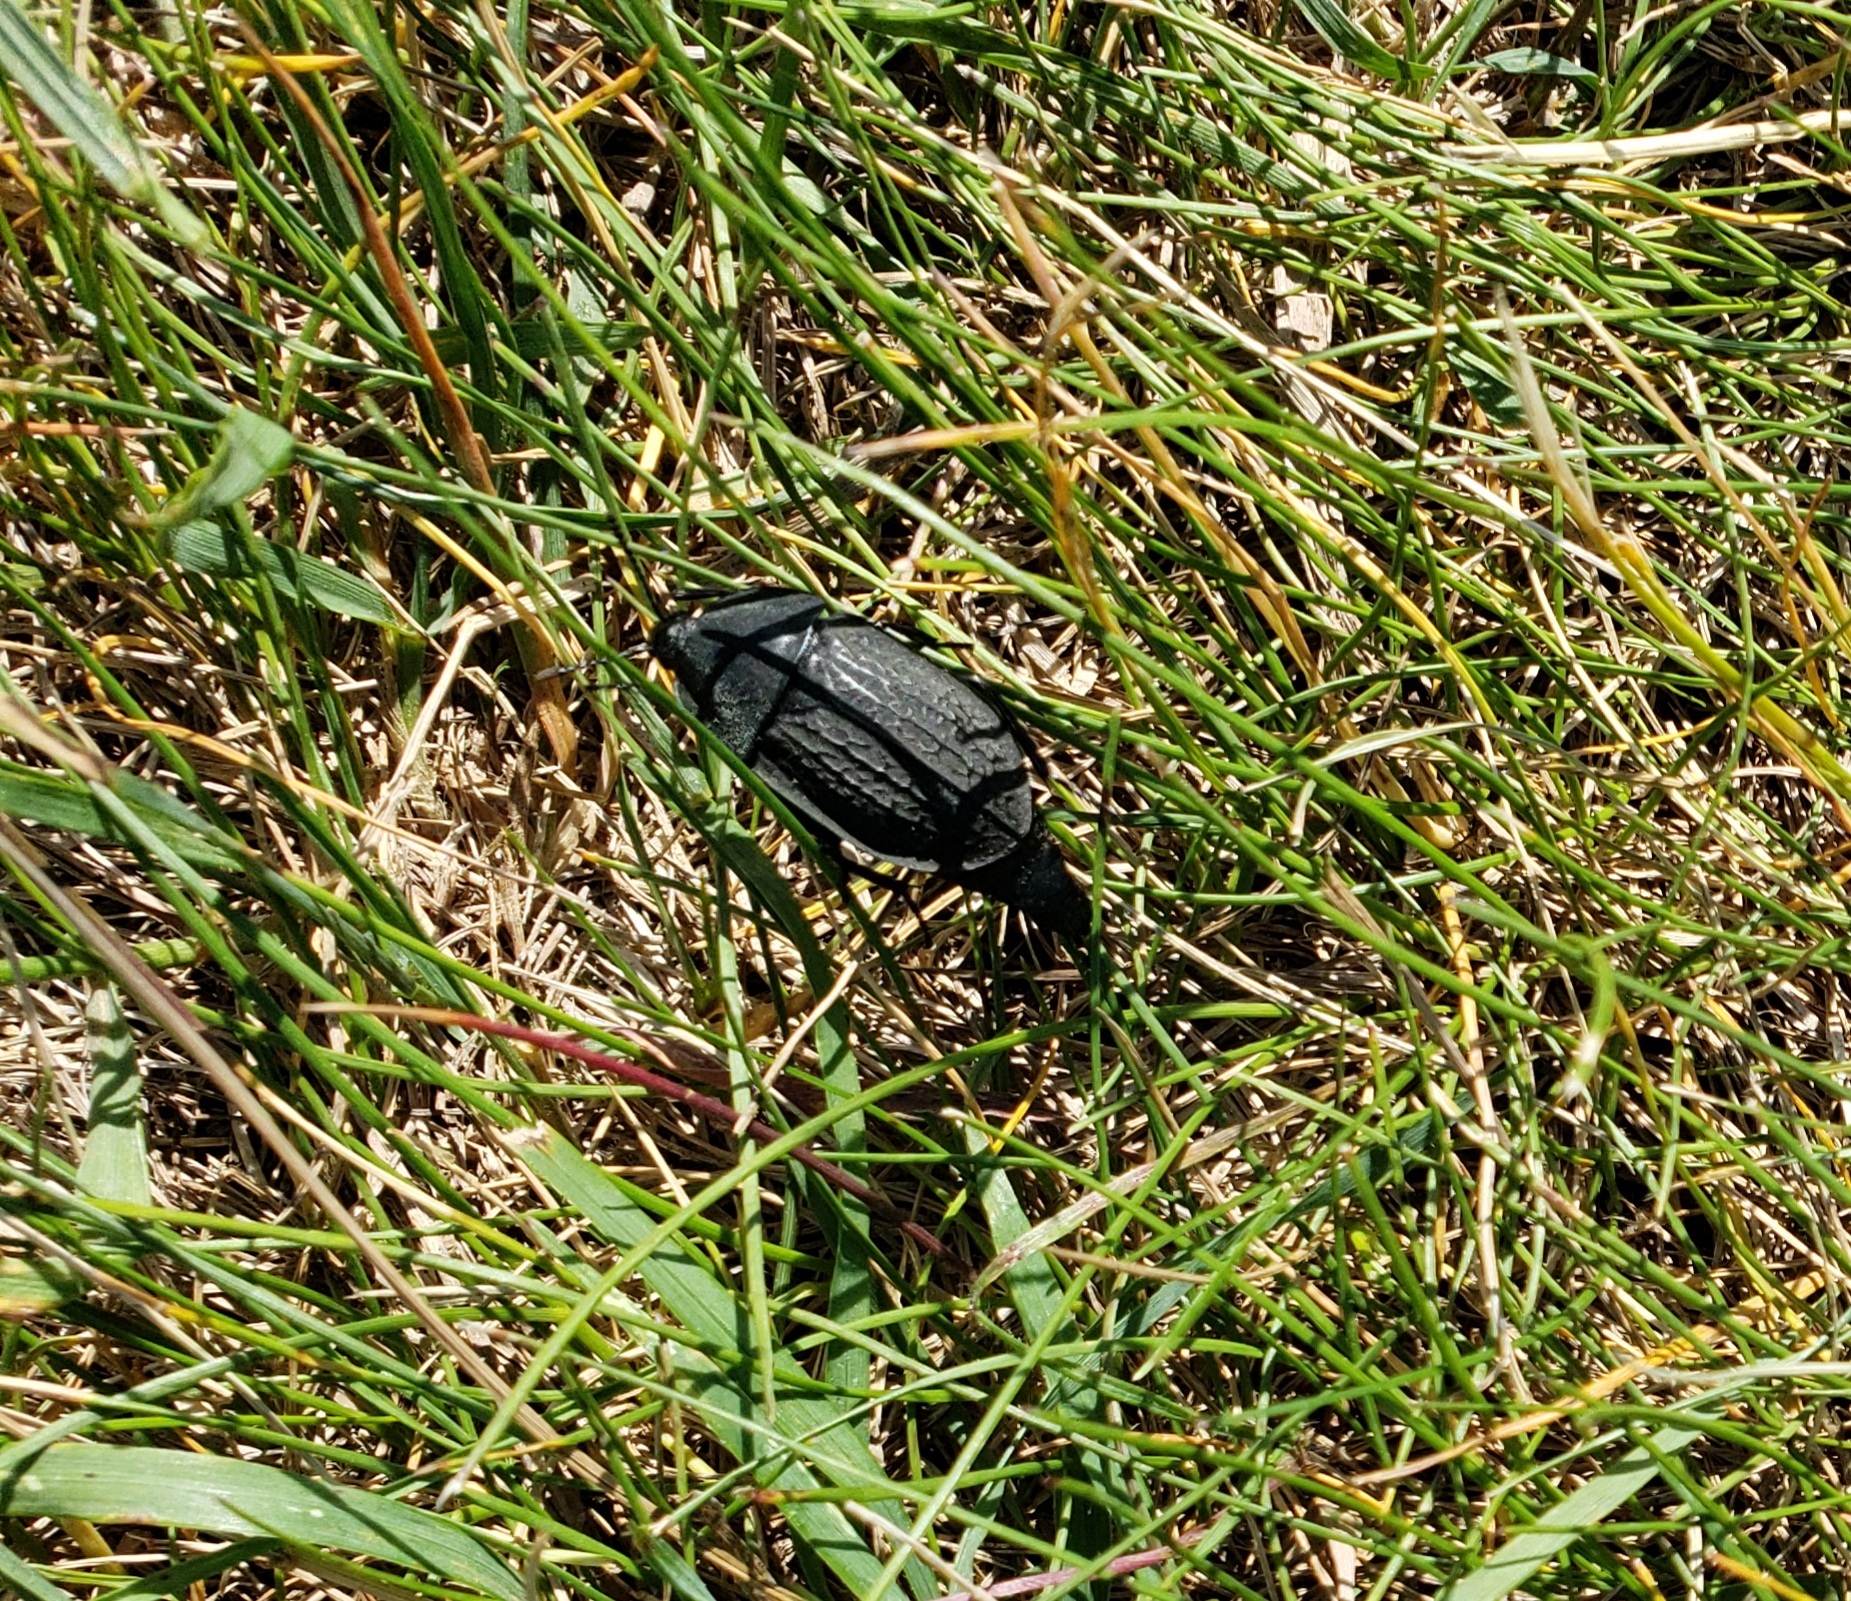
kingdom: Animalia
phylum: Arthropoda
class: Insecta
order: Coleoptera
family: Staphylinidae
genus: Heterosilpha
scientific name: Heterosilpha ramosa
